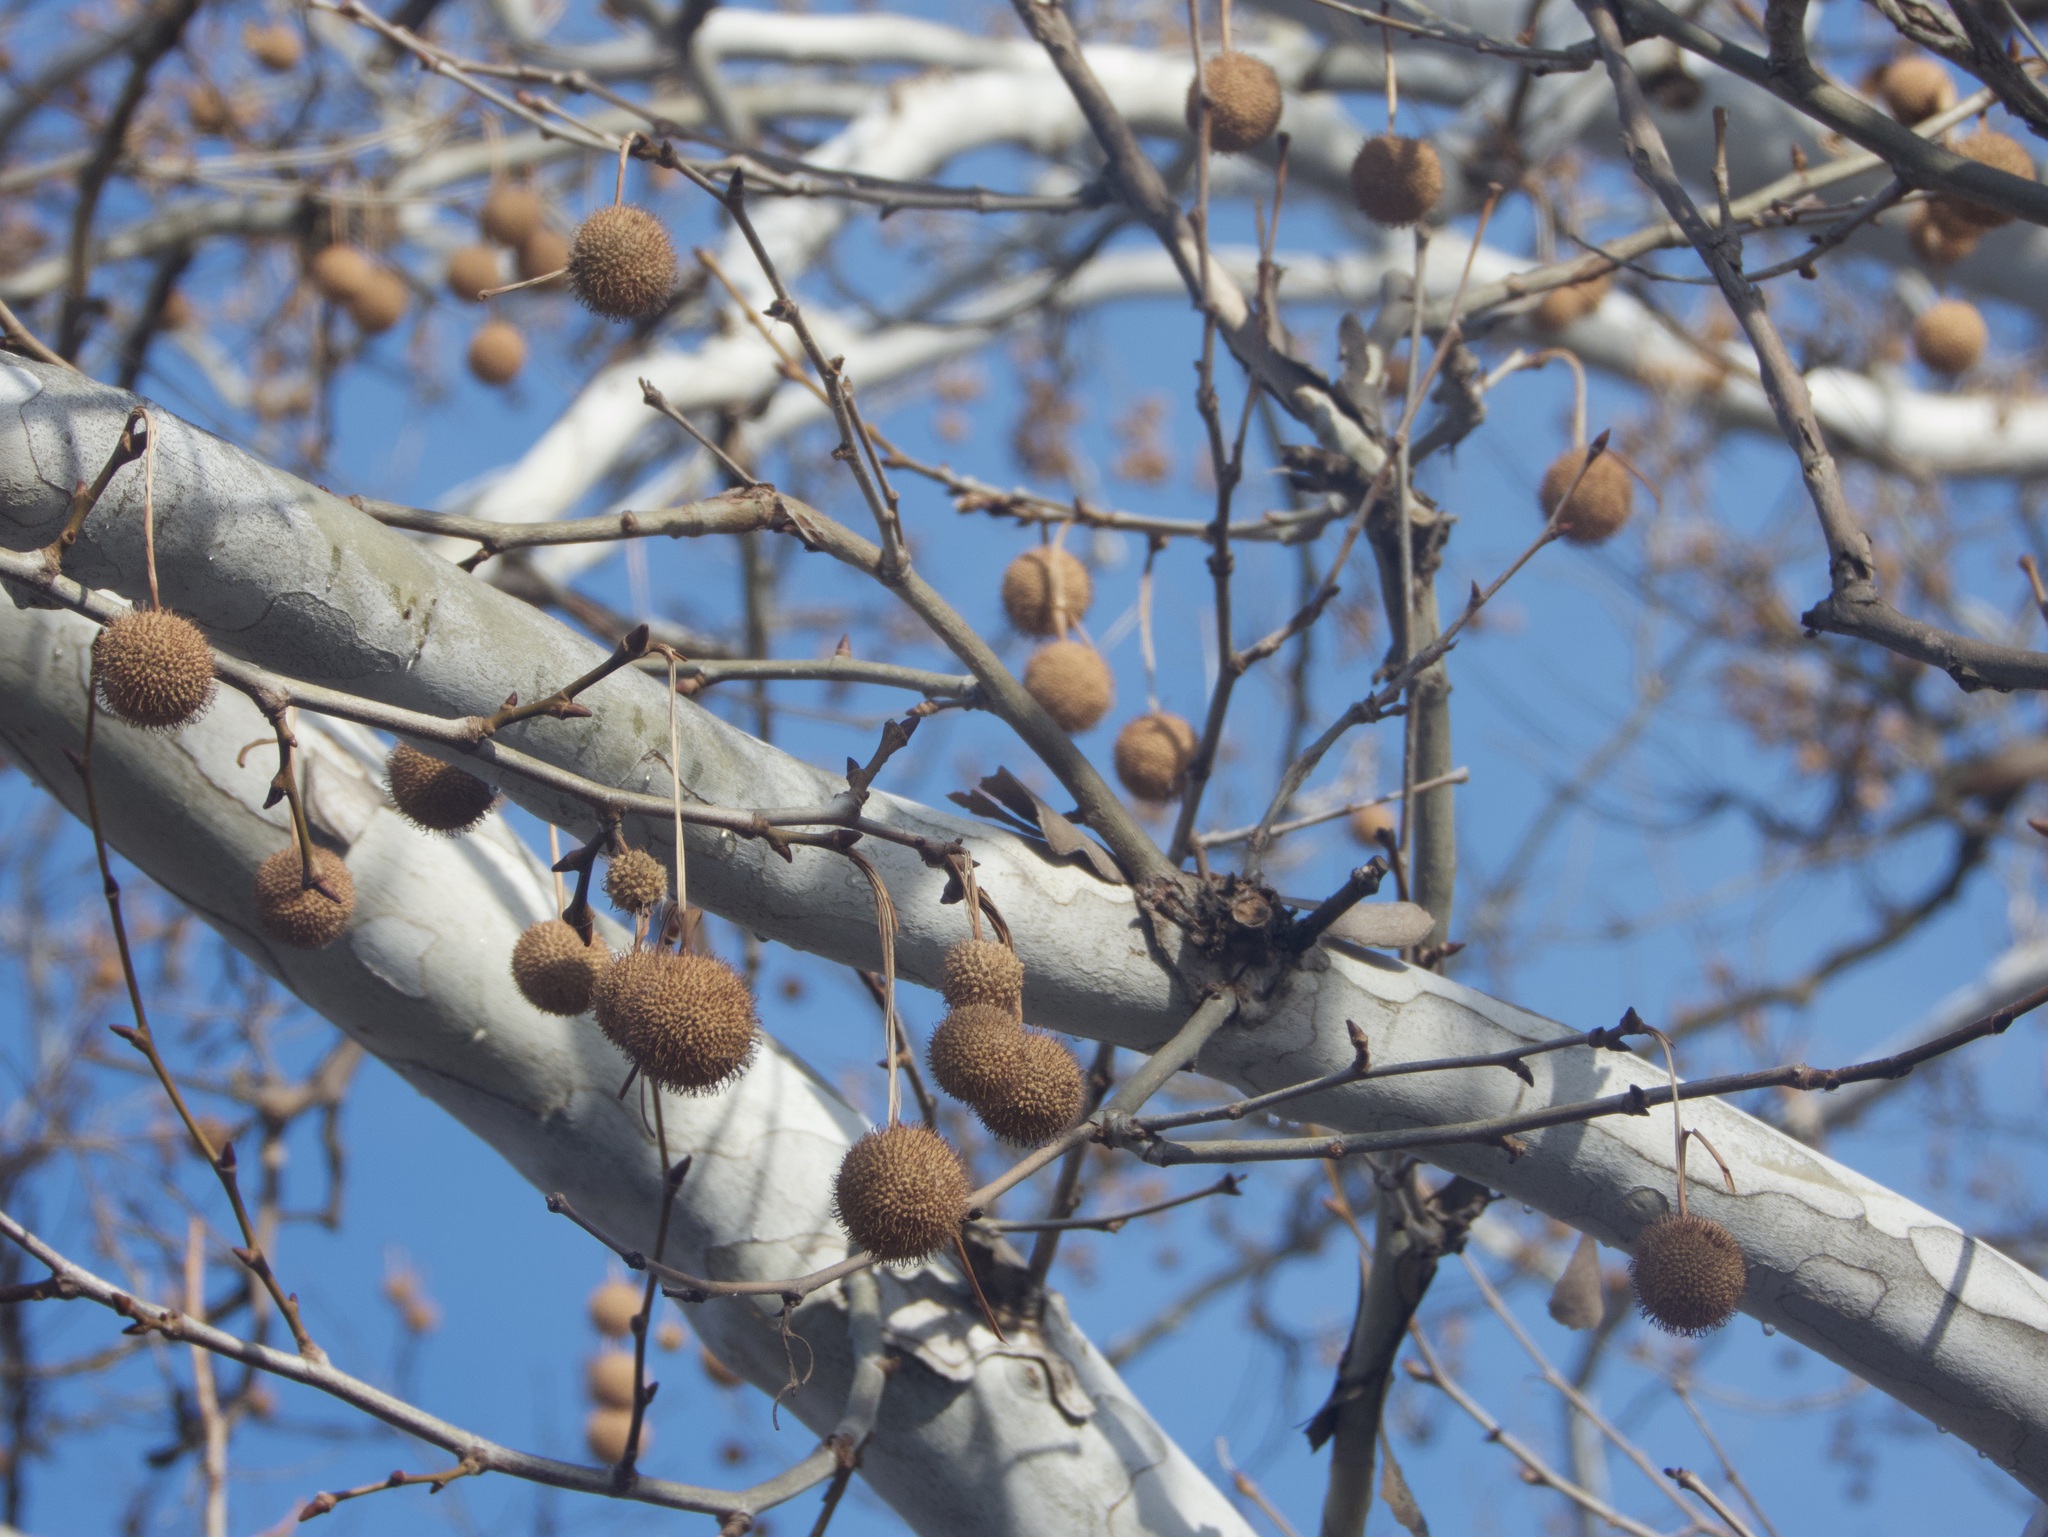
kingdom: Plantae
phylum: Tracheophyta
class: Magnoliopsida
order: Proteales
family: Platanaceae
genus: Platanus
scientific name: Platanus occidentalis
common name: American sycamore
